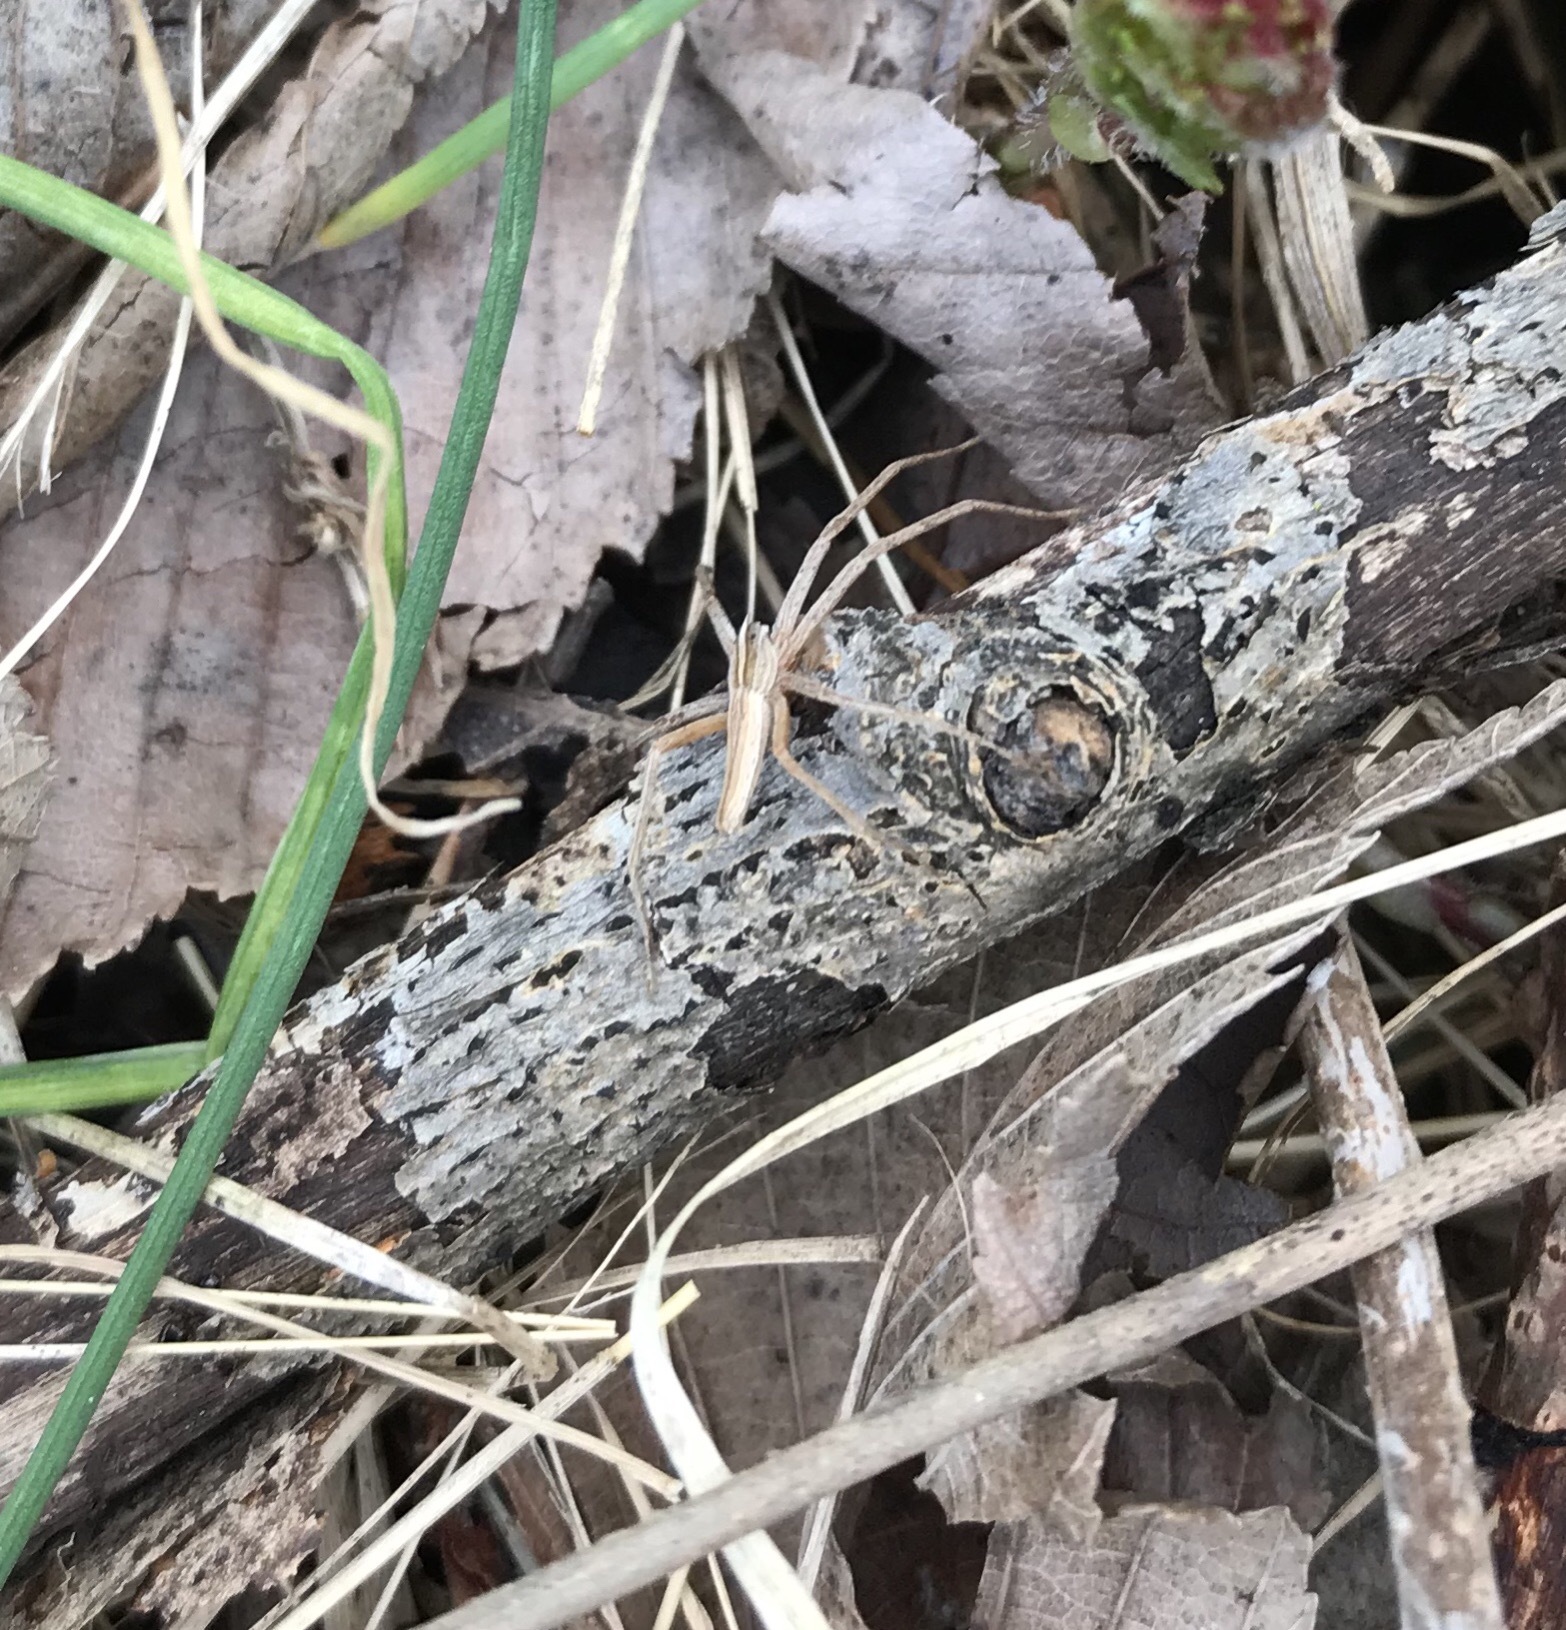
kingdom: Animalia
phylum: Arthropoda
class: Arachnida
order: Araneae
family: Pisauridae
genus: Pisaurina
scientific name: Pisaurina dubia
